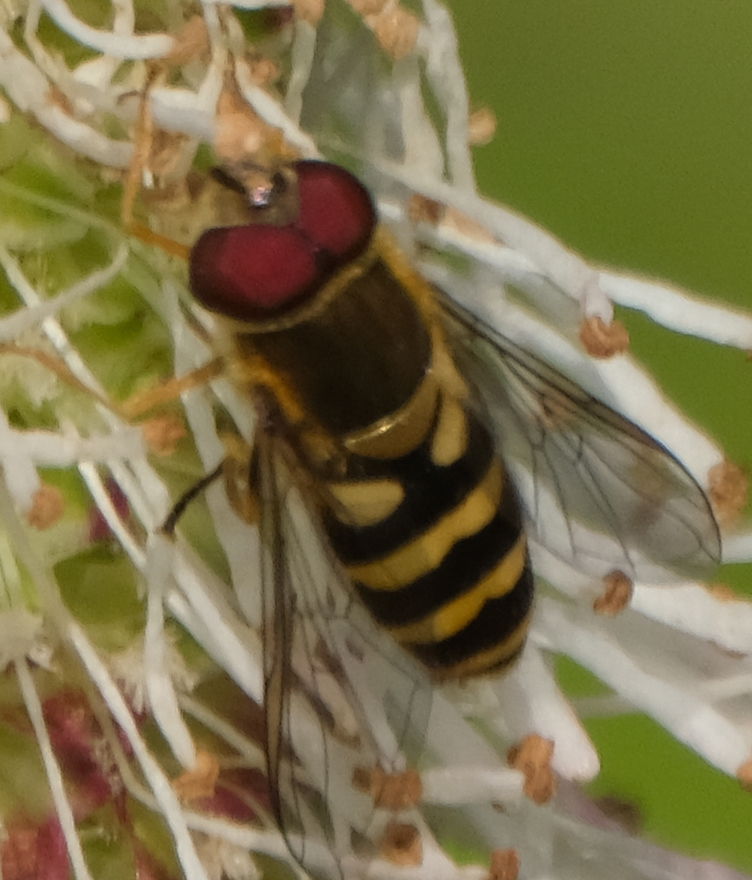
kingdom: Animalia
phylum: Arthropoda
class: Insecta
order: Diptera
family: Syrphidae
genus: Syrphus
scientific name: Syrphus
